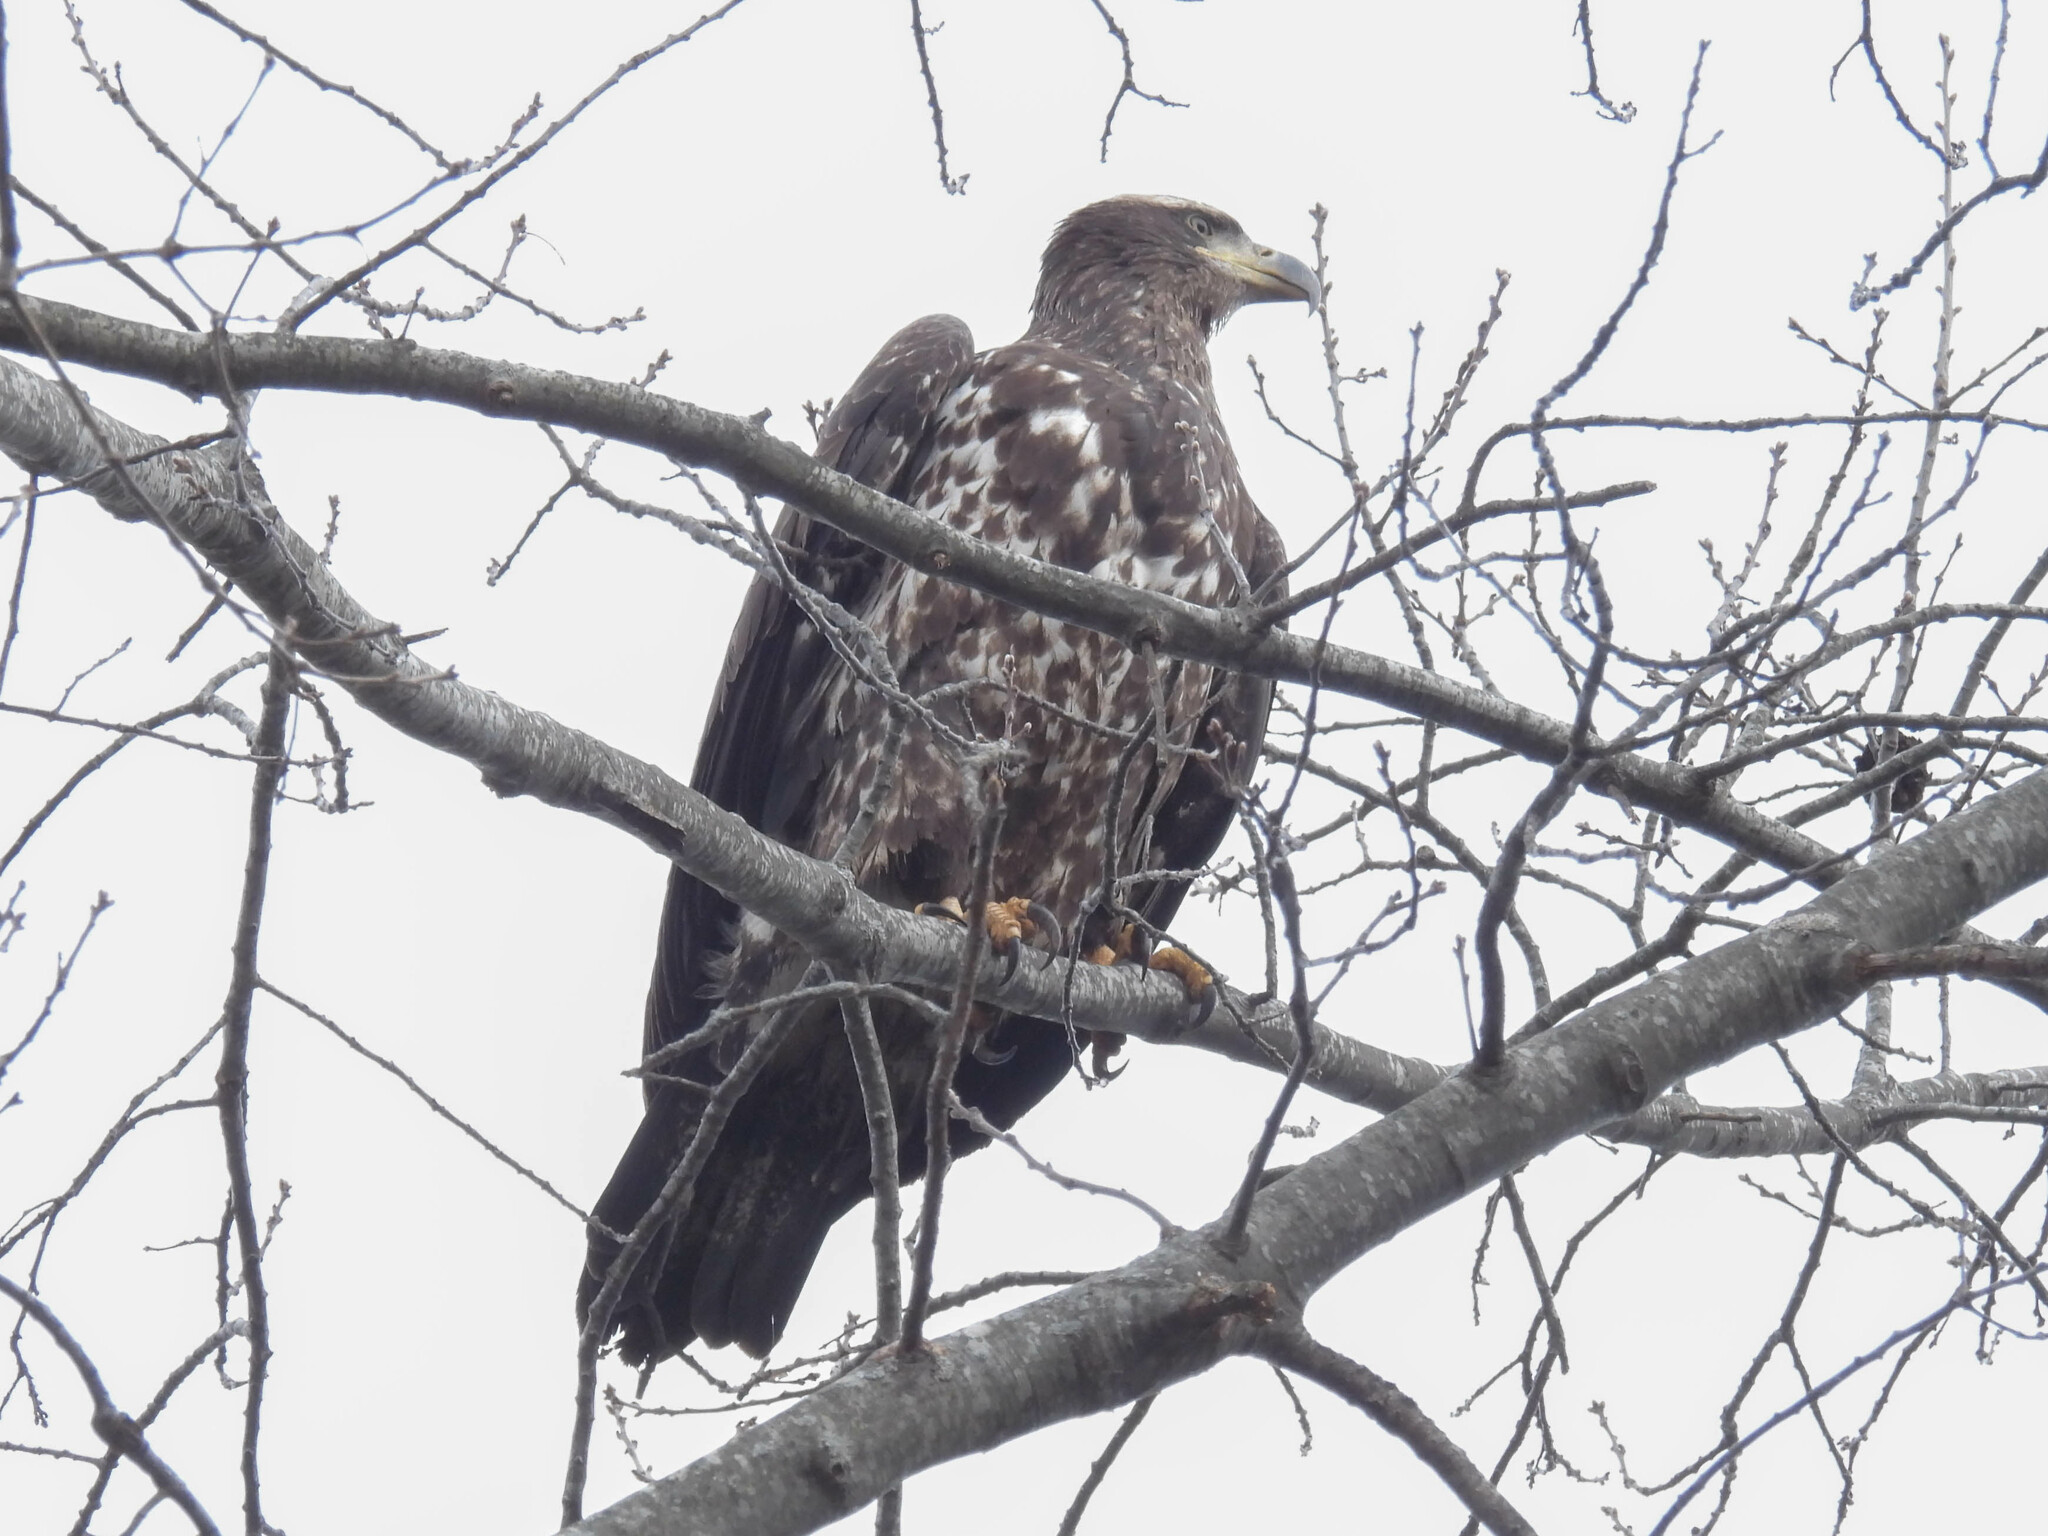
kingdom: Animalia
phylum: Chordata
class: Aves
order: Accipitriformes
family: Accipitridae
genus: Haliaeetus
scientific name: Haliaeetus leucocephalus
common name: Bald eagle
